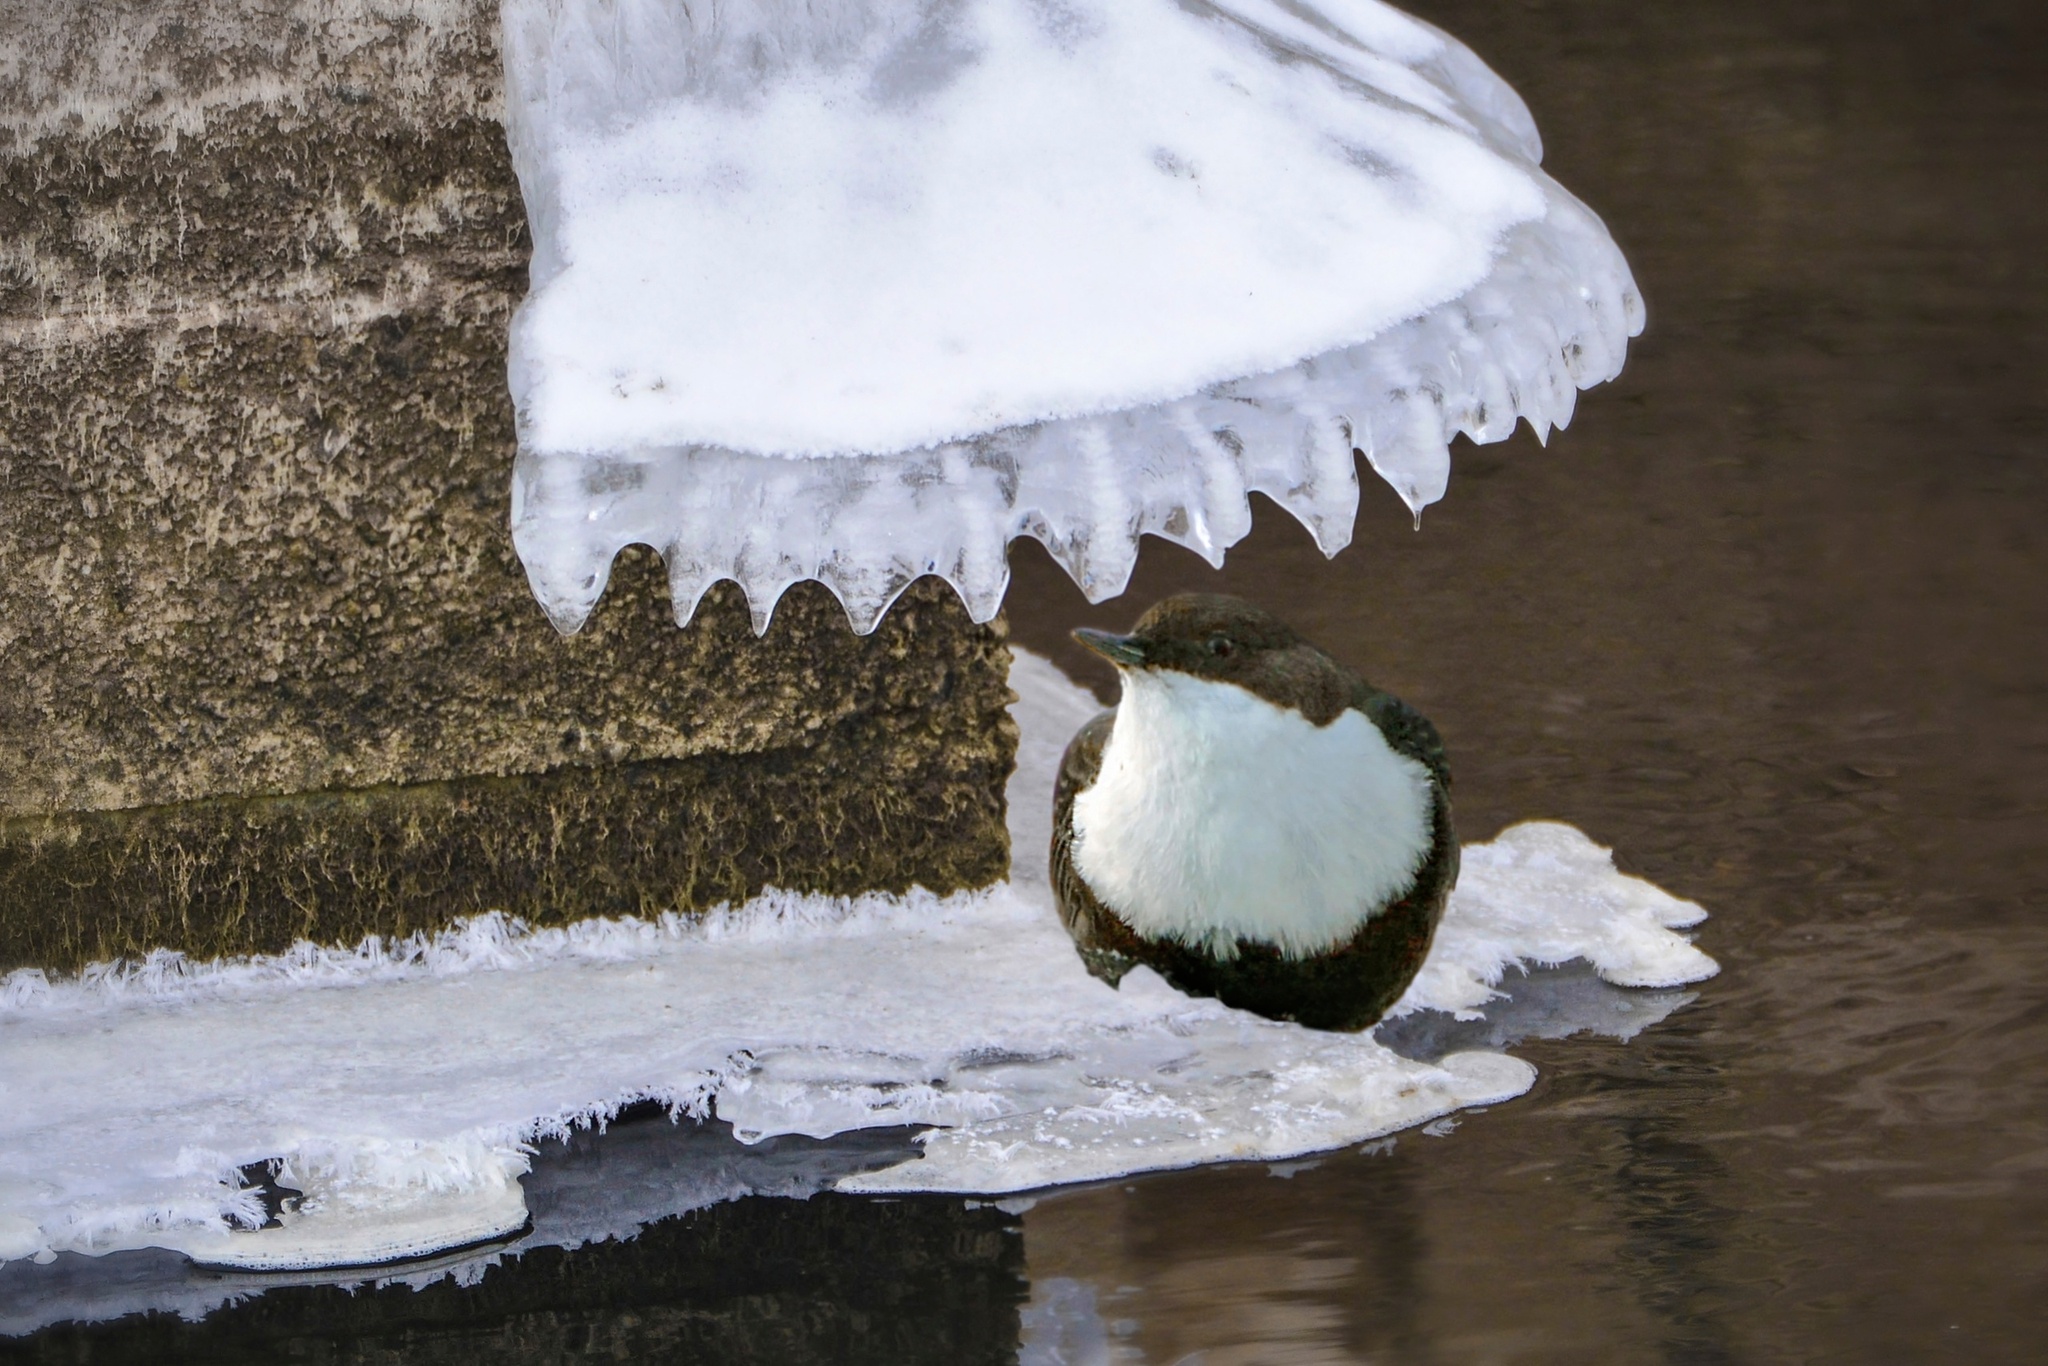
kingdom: Animalia
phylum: Chordata
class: Aves
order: Passeriformes
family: Cinclidae
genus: Cinclus
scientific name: Cinclus cinclus
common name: White-throated dipper
